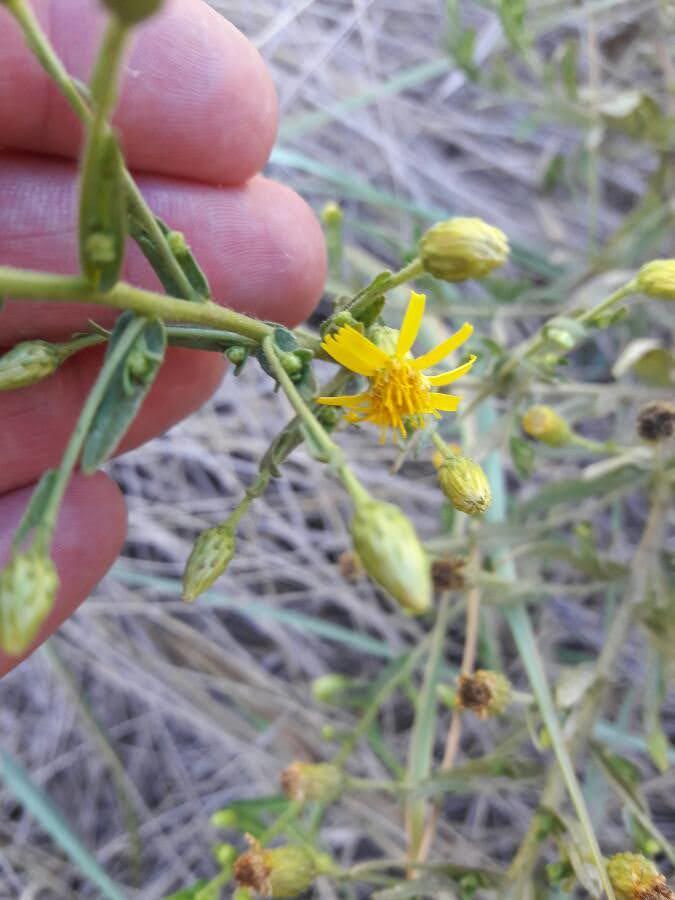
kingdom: Plantae
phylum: Tracheophyta
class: Magnoliopsida
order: Asterales
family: Asteraceae
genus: Dittrichia
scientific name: Dittrichia viscosa
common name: Woody fleabane
